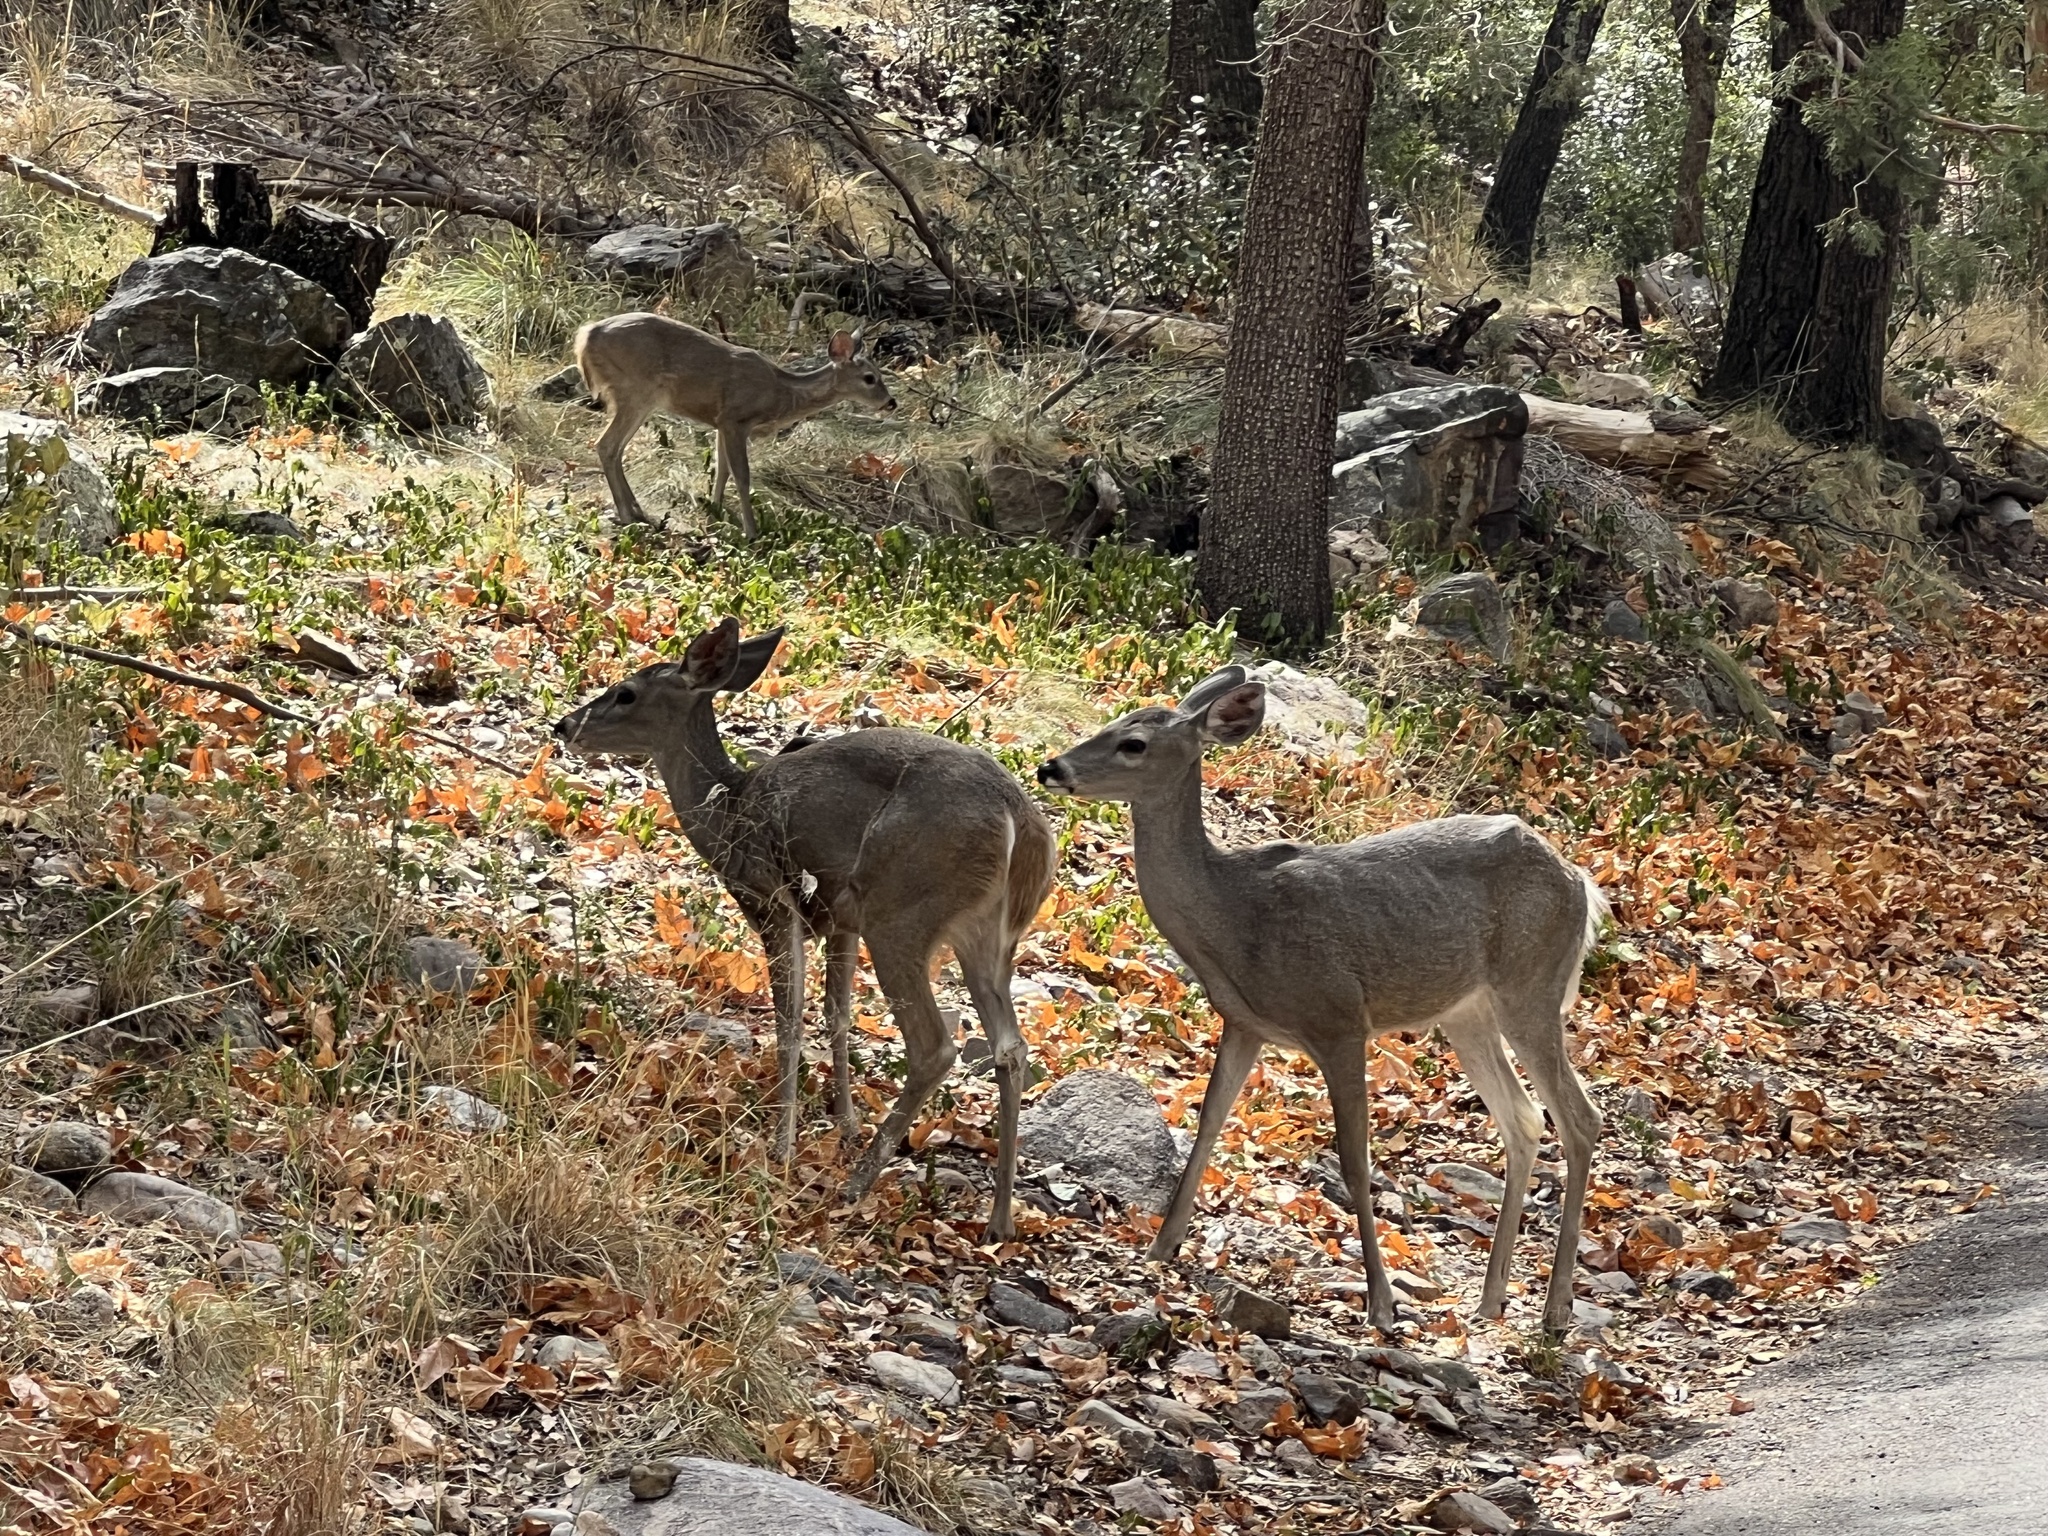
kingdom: Animalia
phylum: Chordata
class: Mammalia
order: Artiodactyla
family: Cervidae
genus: Odocoileus
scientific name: Odocoileus virginianus
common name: White-tailed deer
